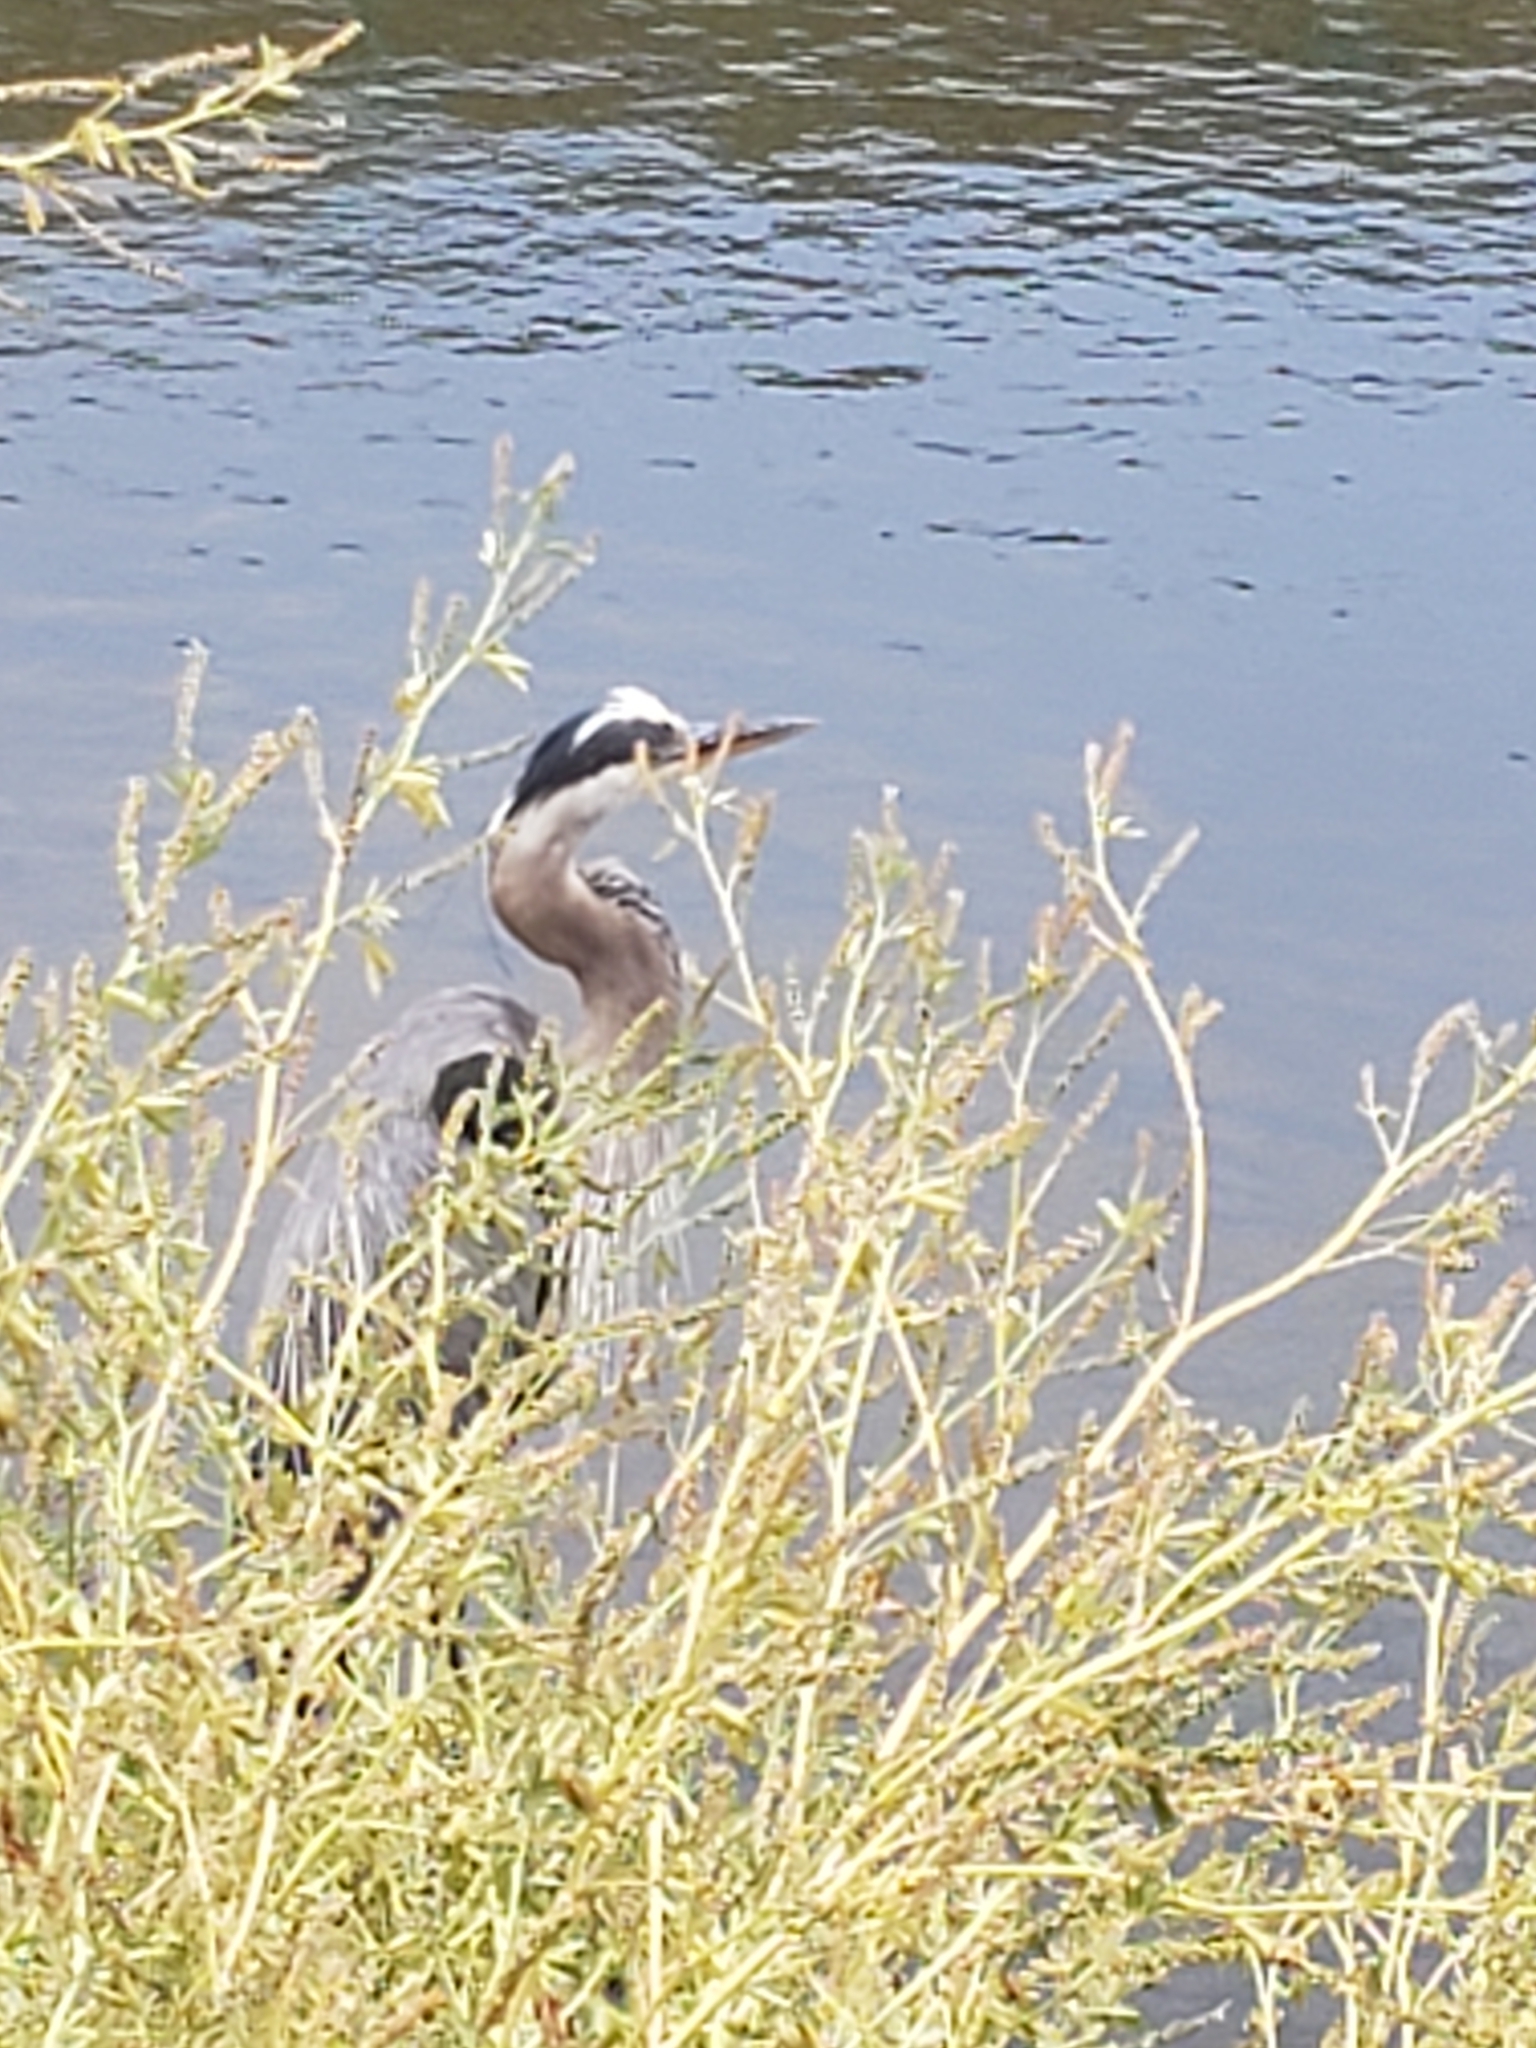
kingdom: Animalia
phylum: Chordata
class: Aves
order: Pelecaniformes
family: Ardeidae
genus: Ardea
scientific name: Ardea herodias
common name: Great blue heron
